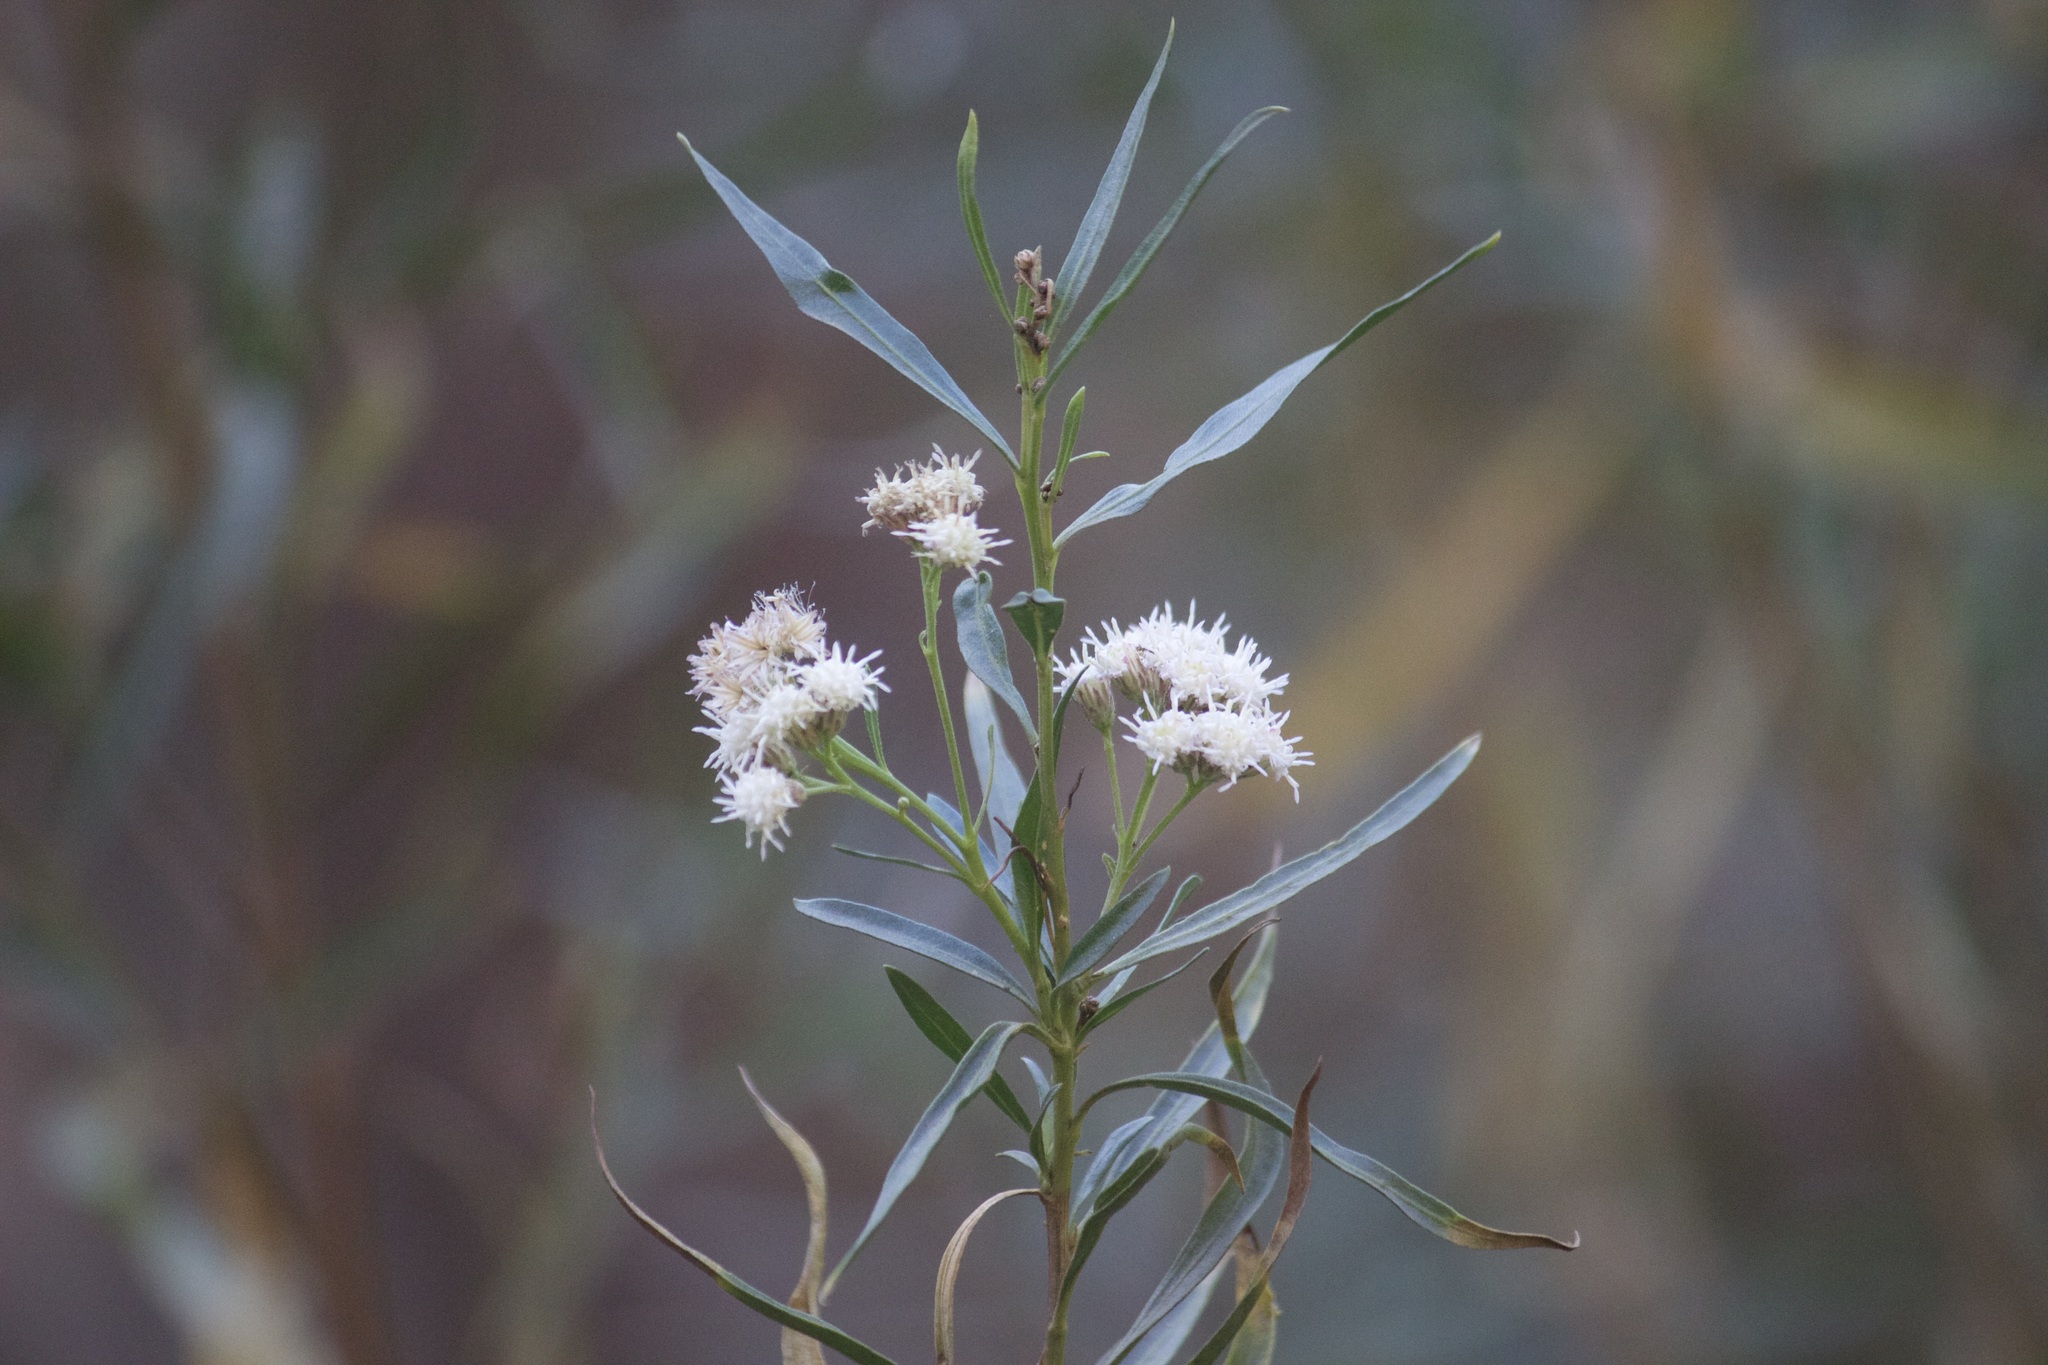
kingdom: Plantae
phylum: Tracheophyta
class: Magnoliopsida
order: Asterales
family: Asteraceae
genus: Baccharis
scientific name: Baccharis salicifolia
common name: Sticky baccharis
